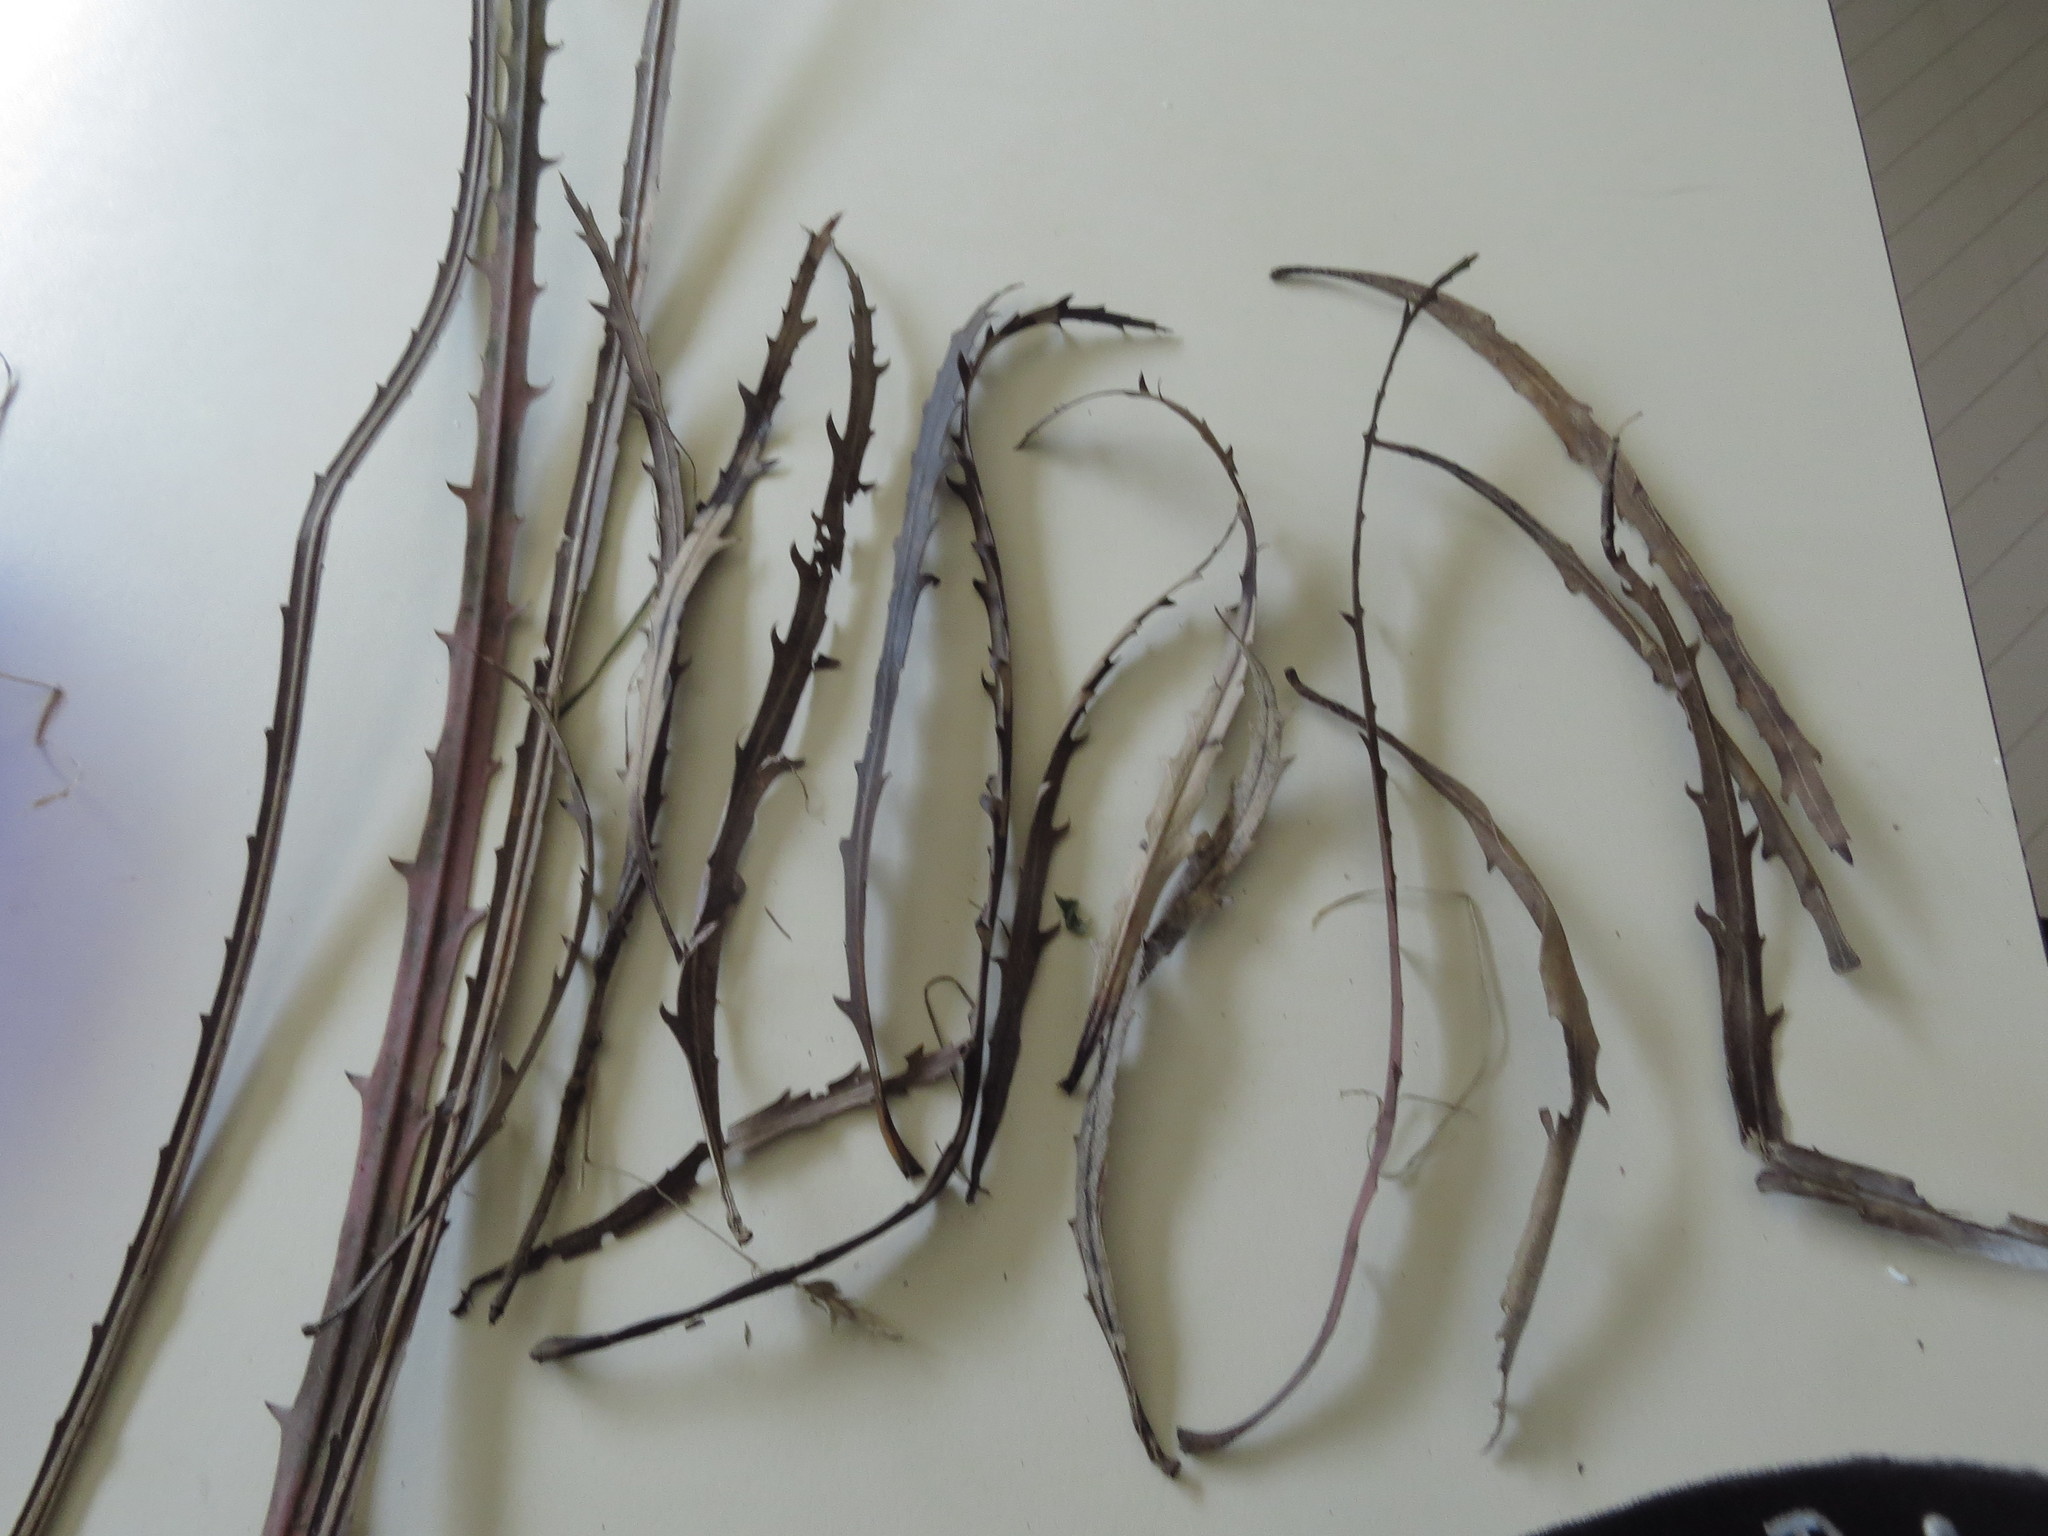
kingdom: Plantae
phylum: Tracheophyta
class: Magnoliopsida
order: Apiales
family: Araliaceae
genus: Pseudopanax
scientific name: Pseudopanax crassifolius
